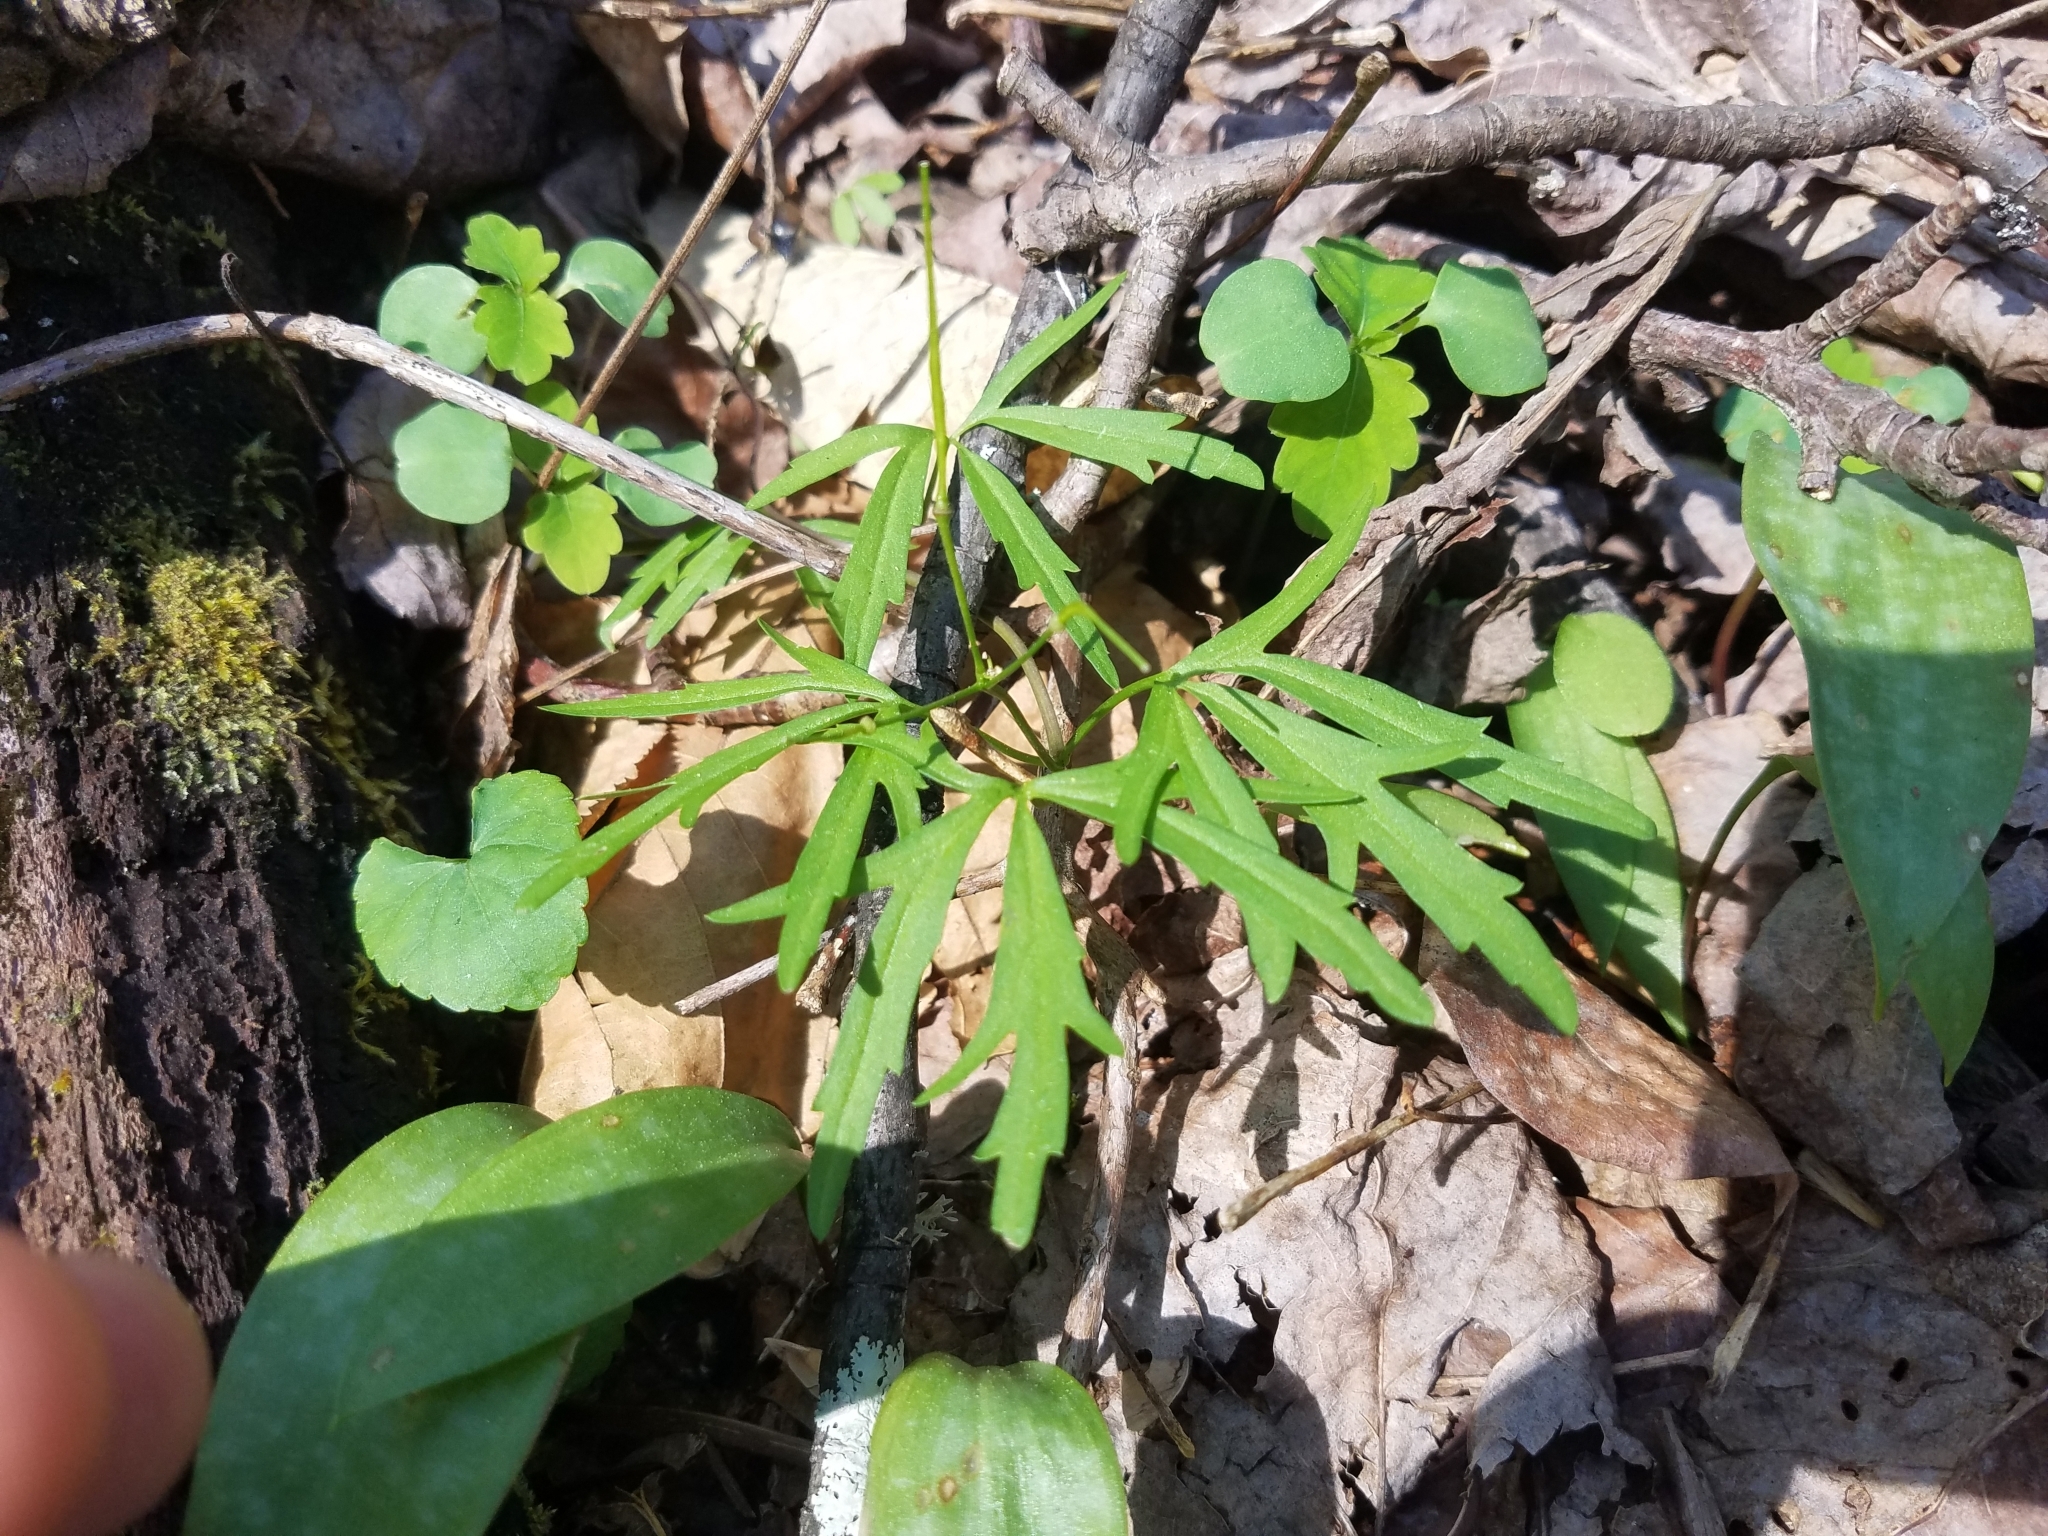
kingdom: Plantae
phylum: Tracheophyta
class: Magnoliopsida
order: Brassicales
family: Brassicaceae
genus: Cardamine
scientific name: Cardamine concatenata
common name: Cut-leaf toothcup
